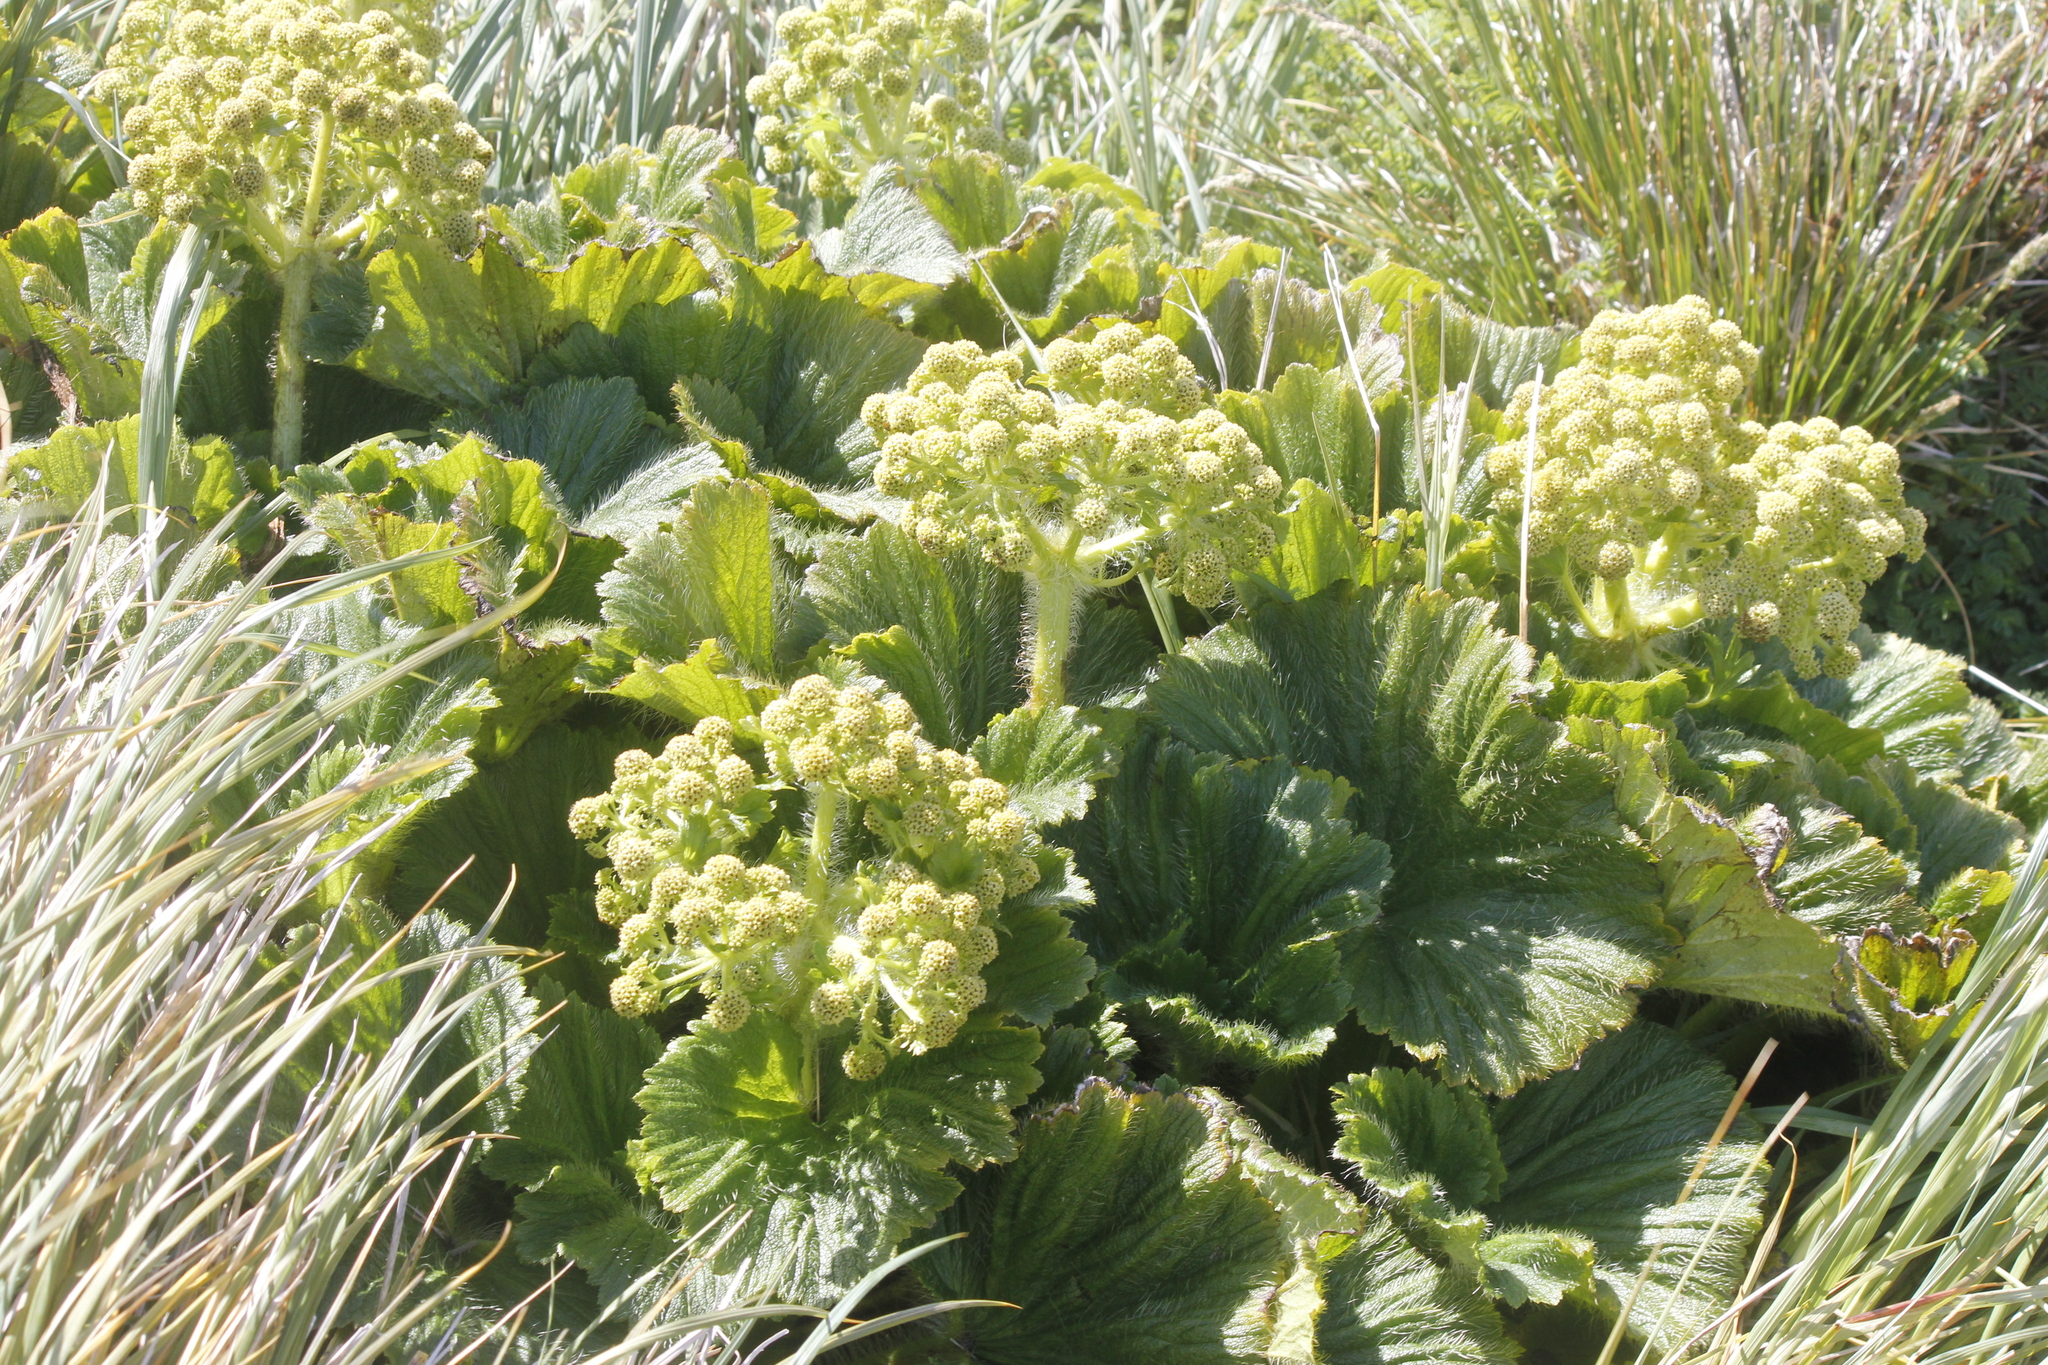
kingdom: Plantae
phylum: Tracheophyta
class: Magnoliopsida
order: Apiales
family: Apiaceae
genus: Azorella
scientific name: Azorella polaris
